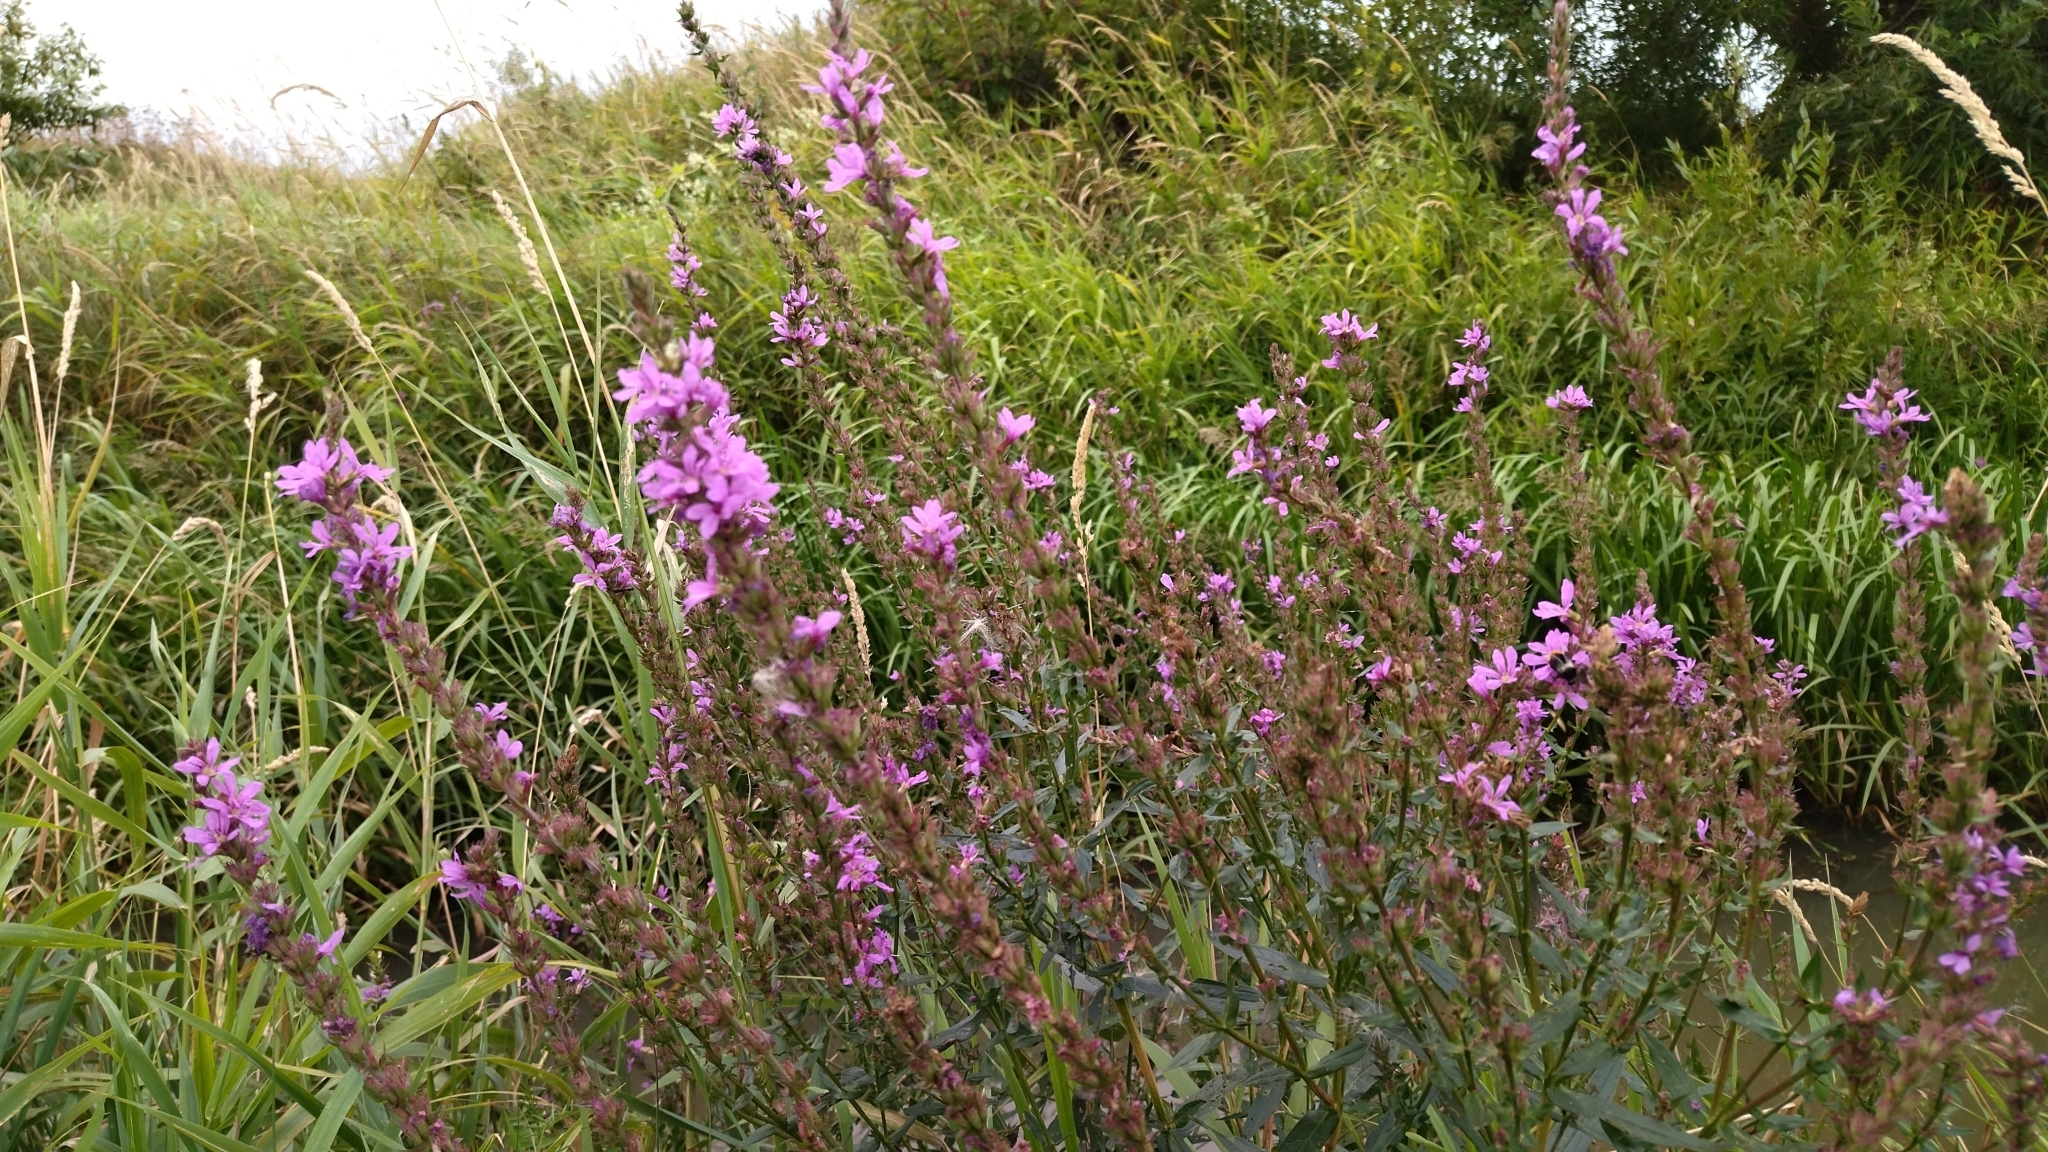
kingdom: Plantae
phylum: Tracheophyta
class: Magnoliopsida
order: Myrtales
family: Lythraceae
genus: Lythrum
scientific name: Lythrum salicaria
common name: Purple loosestrife
